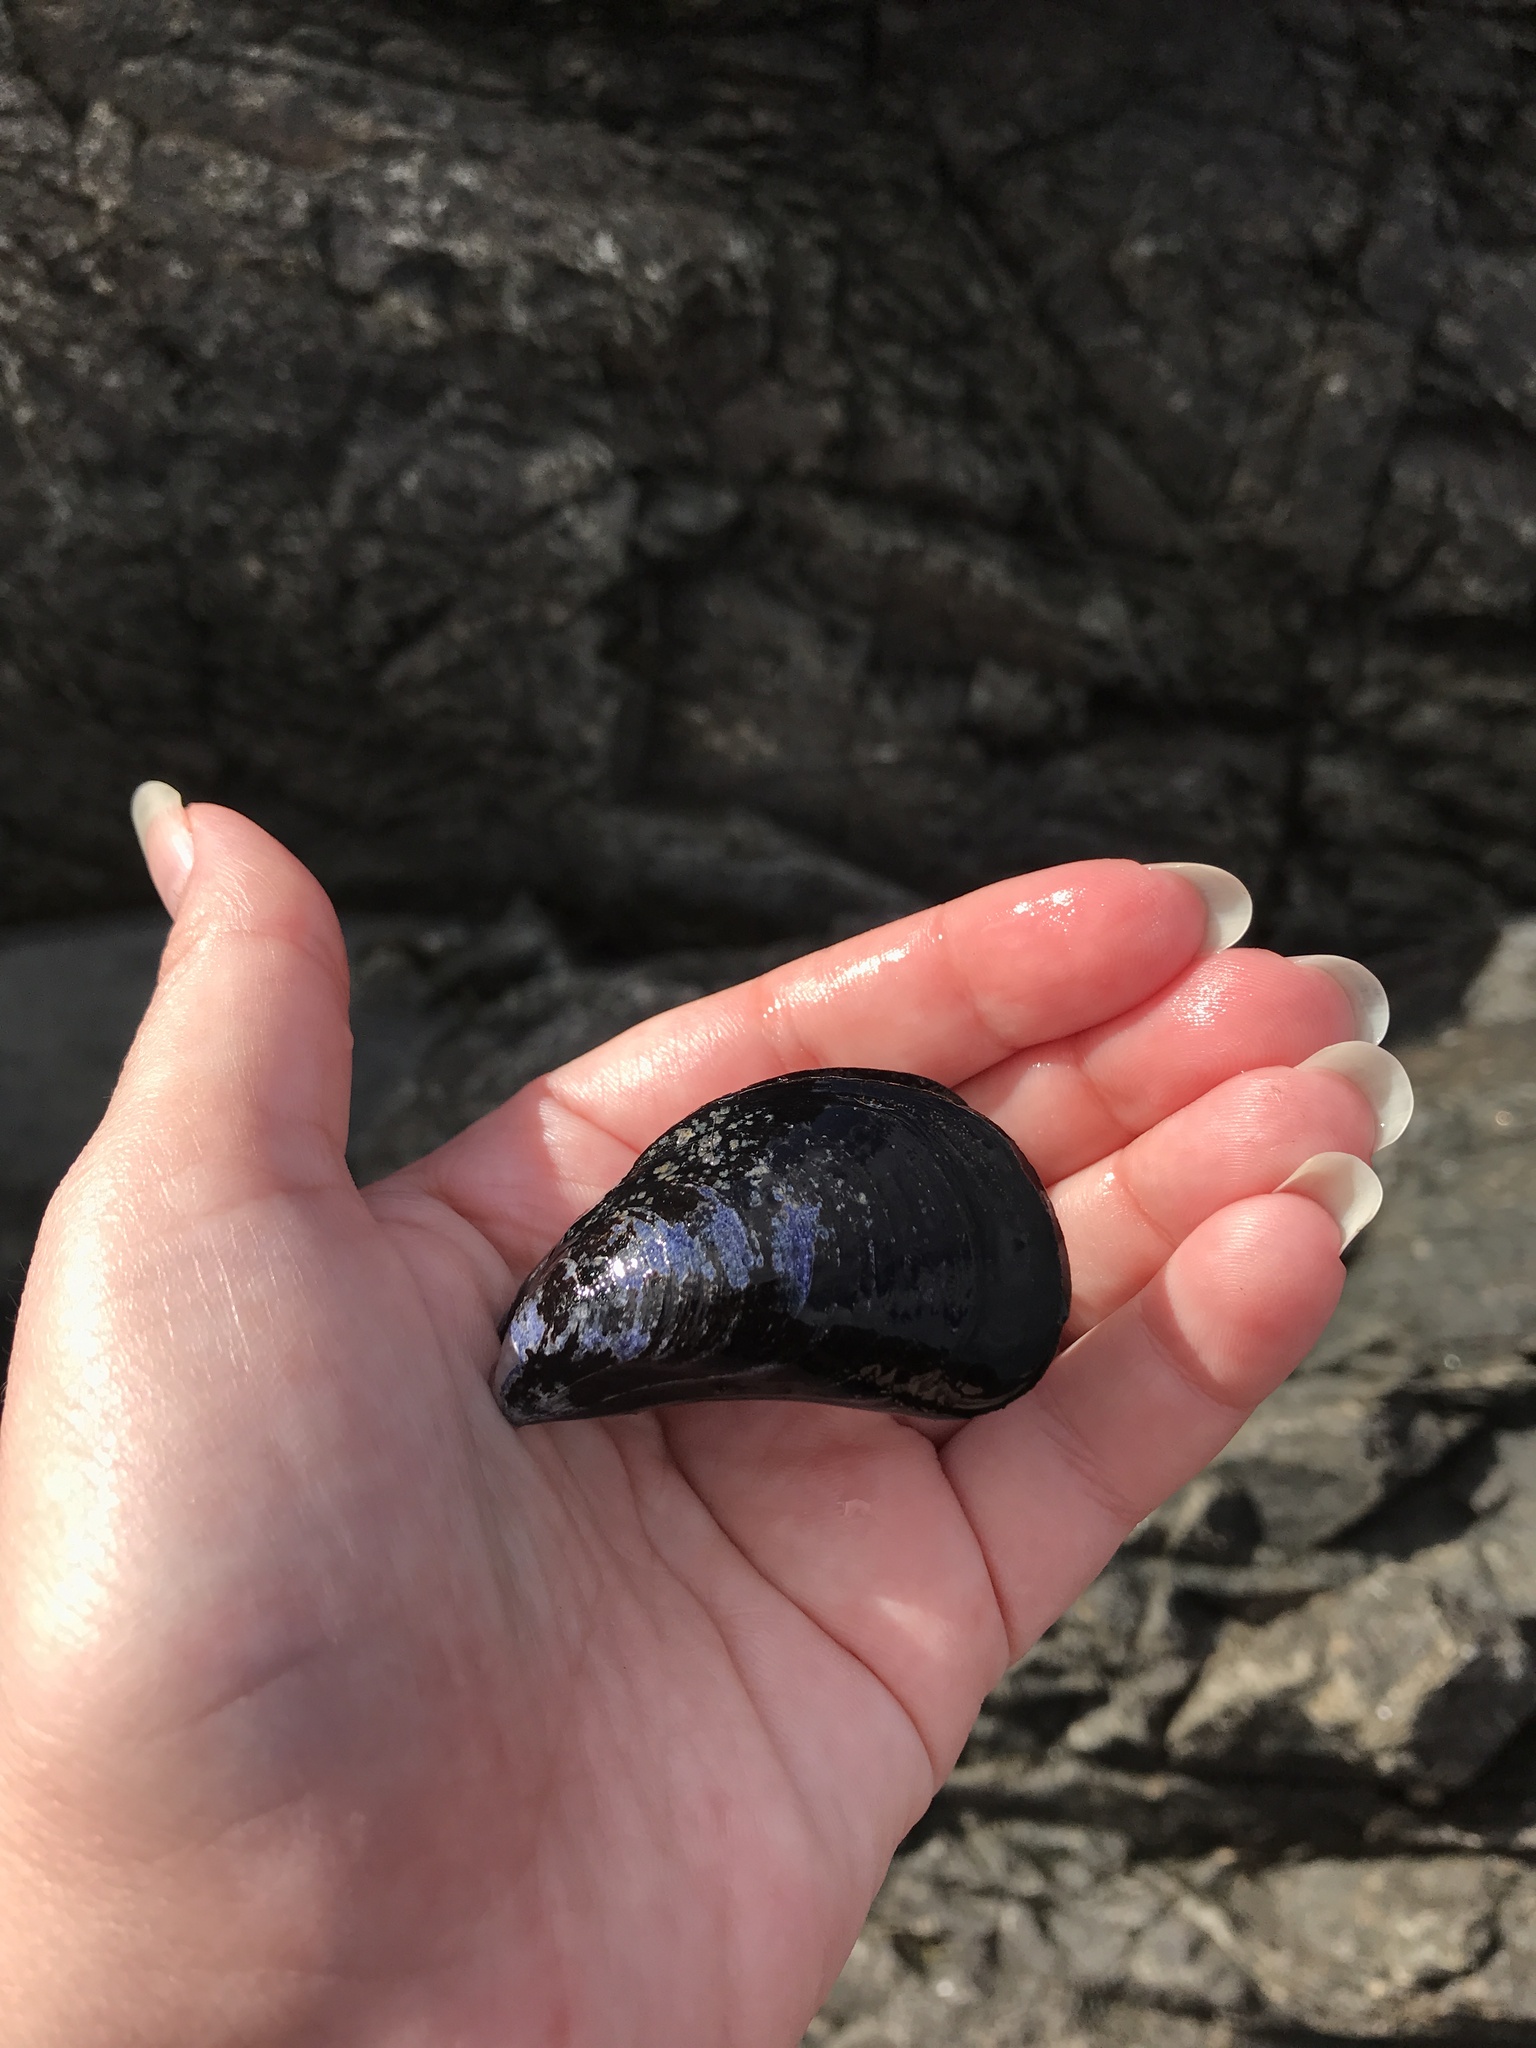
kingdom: Animalia
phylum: Mollusca
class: Bivalvia
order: Mytilida
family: Mytilidae
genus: Mytilus
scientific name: Mytilus edulis
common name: Blue mussel
